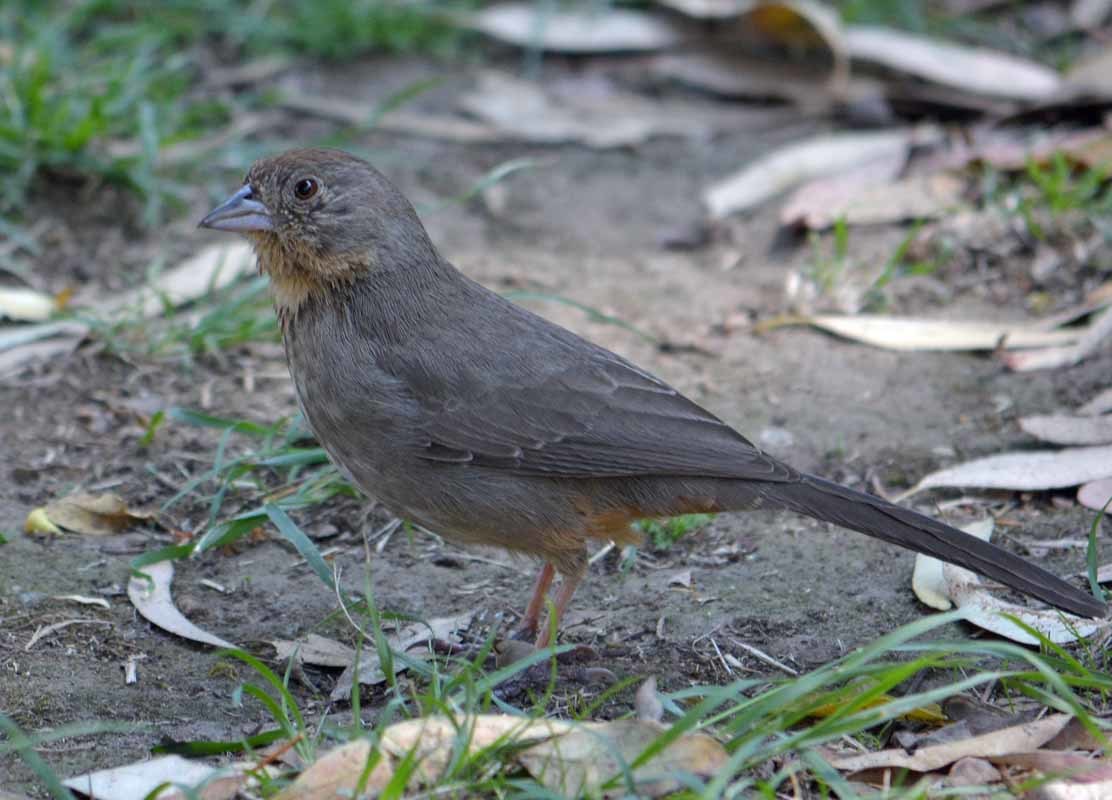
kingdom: Animalia
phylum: Chordata
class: Aves
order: Passeriformes
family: Passerellidae
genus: Melozone
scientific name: Melozone fusca
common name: Canyon towhee
